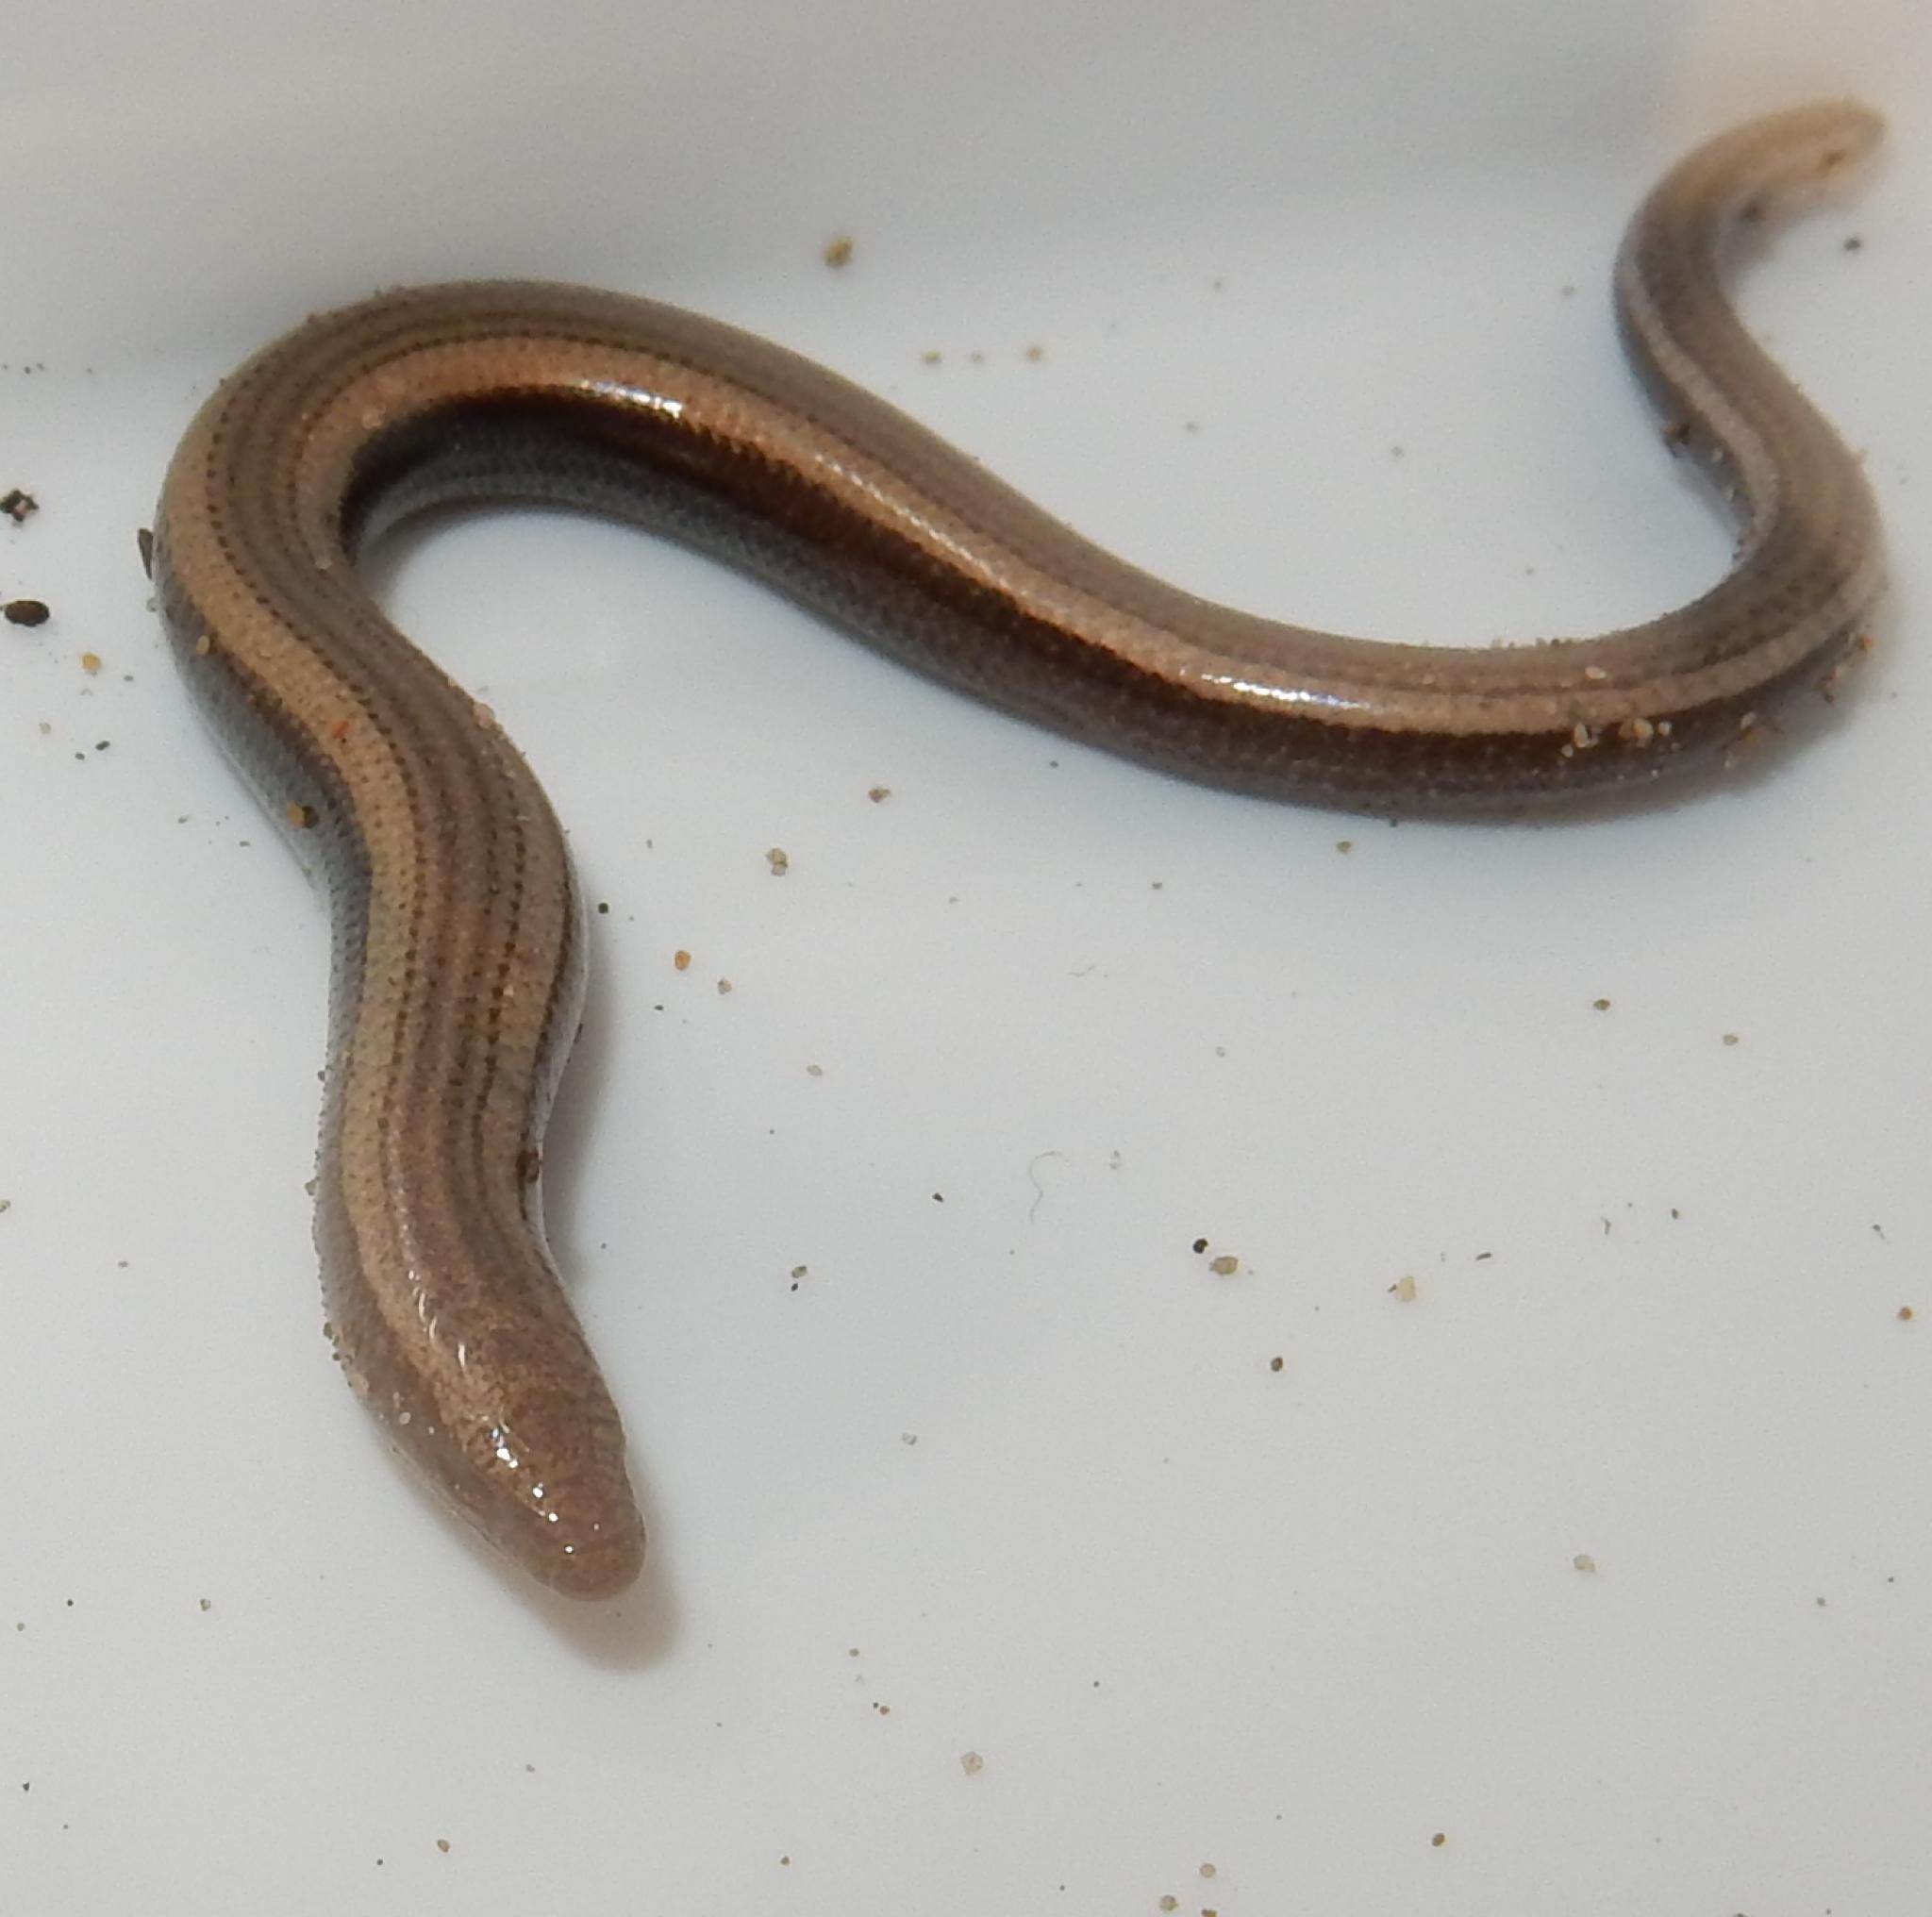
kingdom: Animalia
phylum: Chordata
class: Squamata
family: Scincidae
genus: Scelotes
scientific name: Scelotes anguineus
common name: Algoa dwarf burrowing skink
